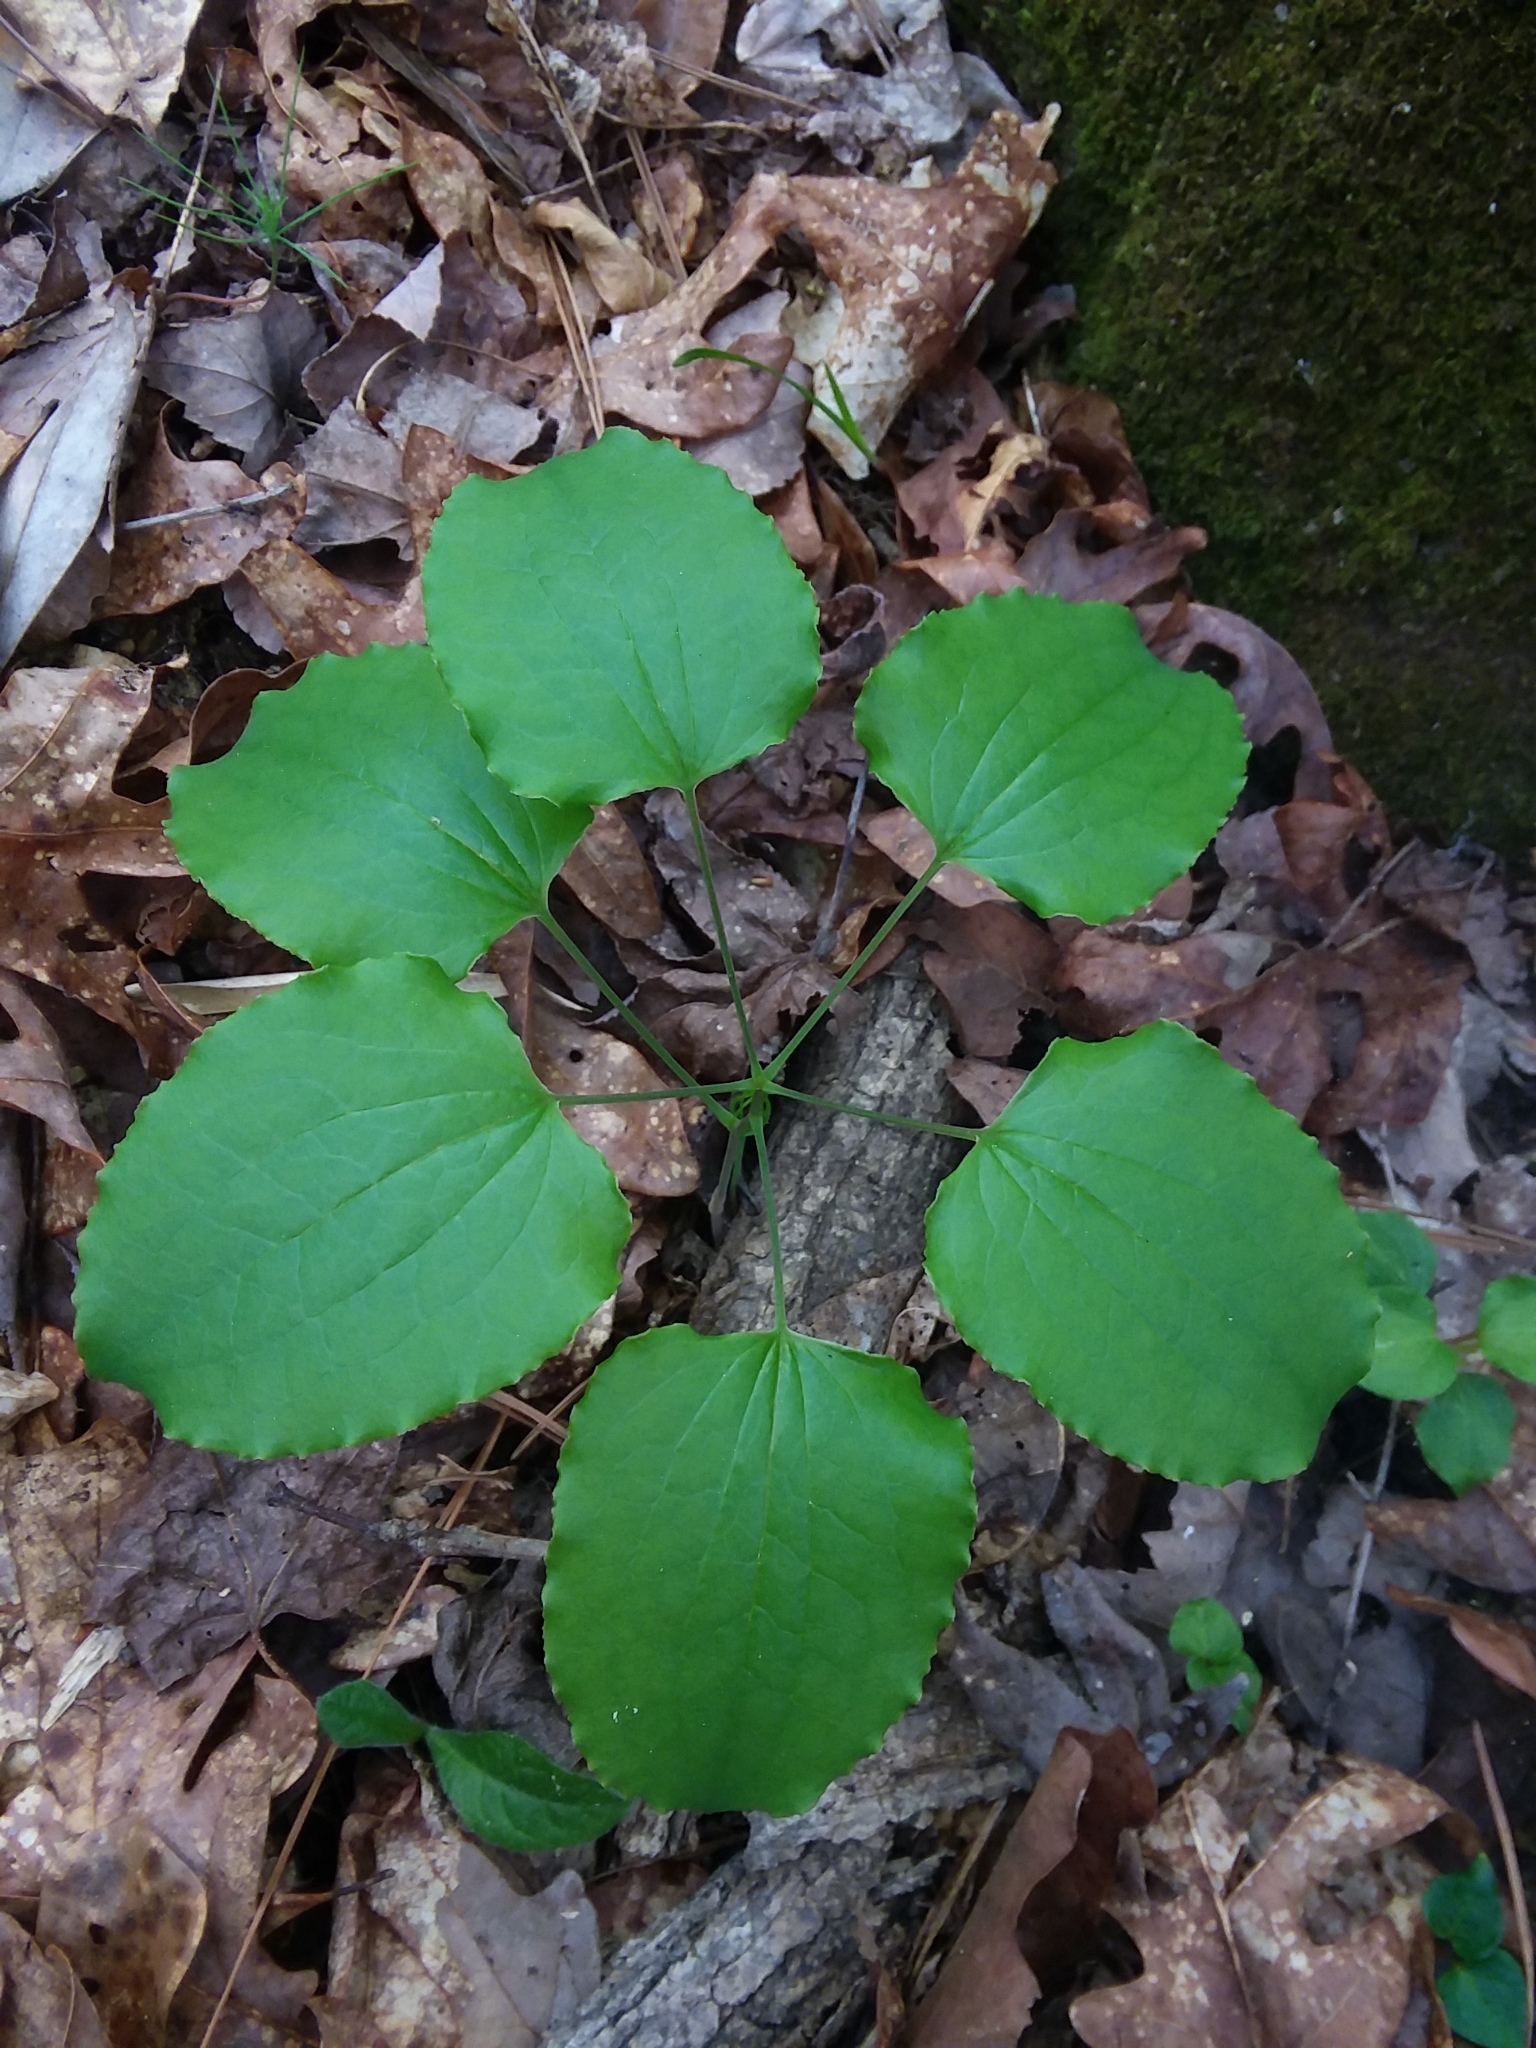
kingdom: Plantae
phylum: Tracheophyta
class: Liliopsida
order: Liliales
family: Smilacaceae
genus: Smilax
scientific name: Smilax lasioneura
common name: Blue ridge carrionflower
